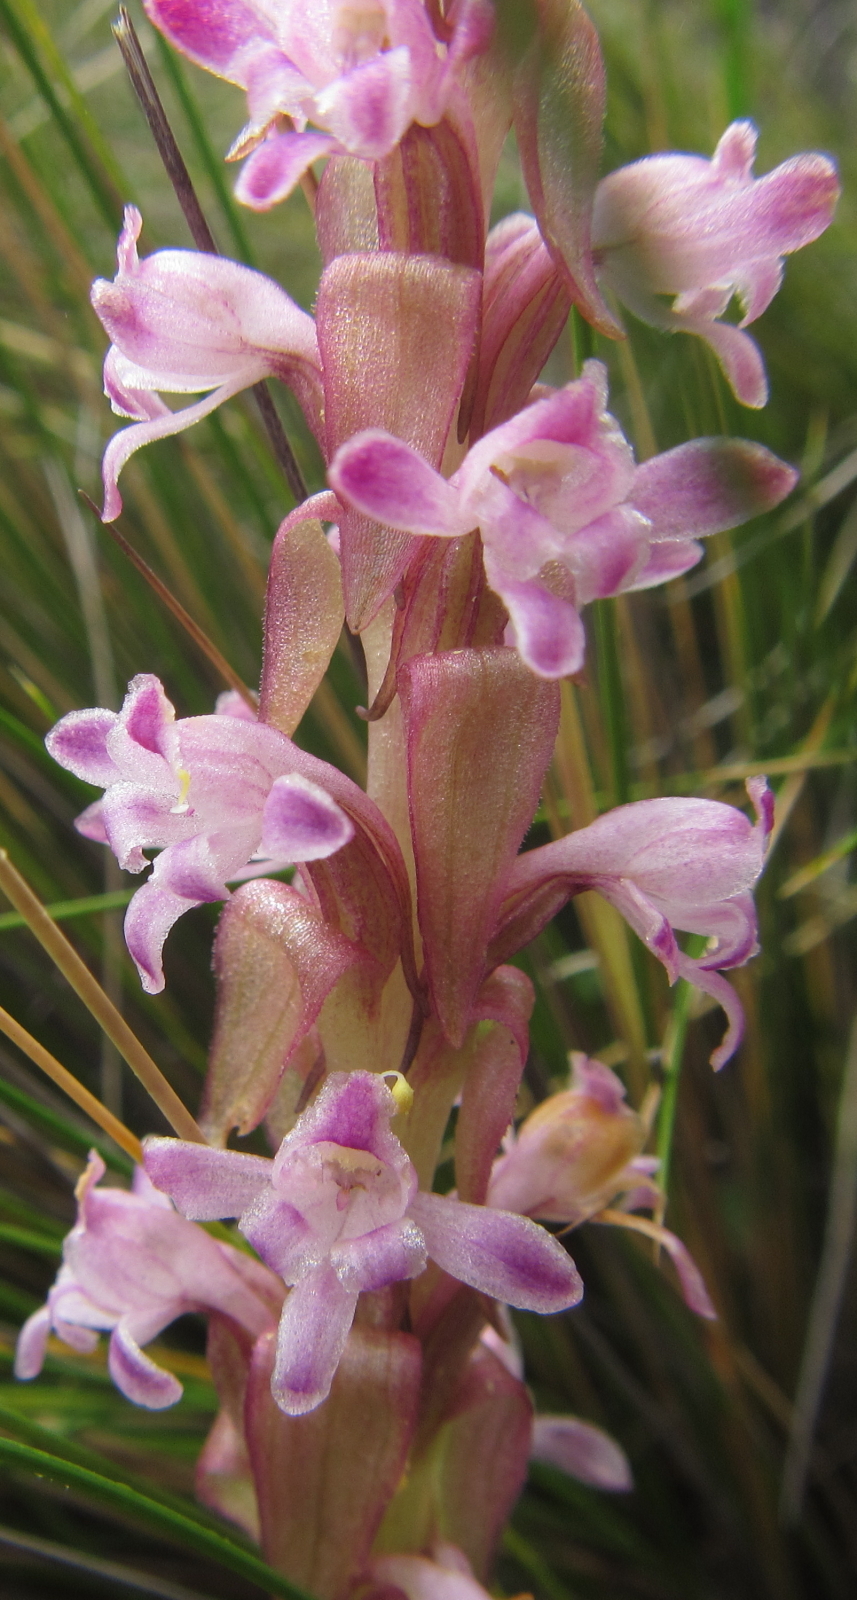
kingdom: Plantae
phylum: Tracheophyta
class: Liliopsida
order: Asparagales
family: Orchidaceae
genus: Satyrium
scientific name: Satyrium neglectum
